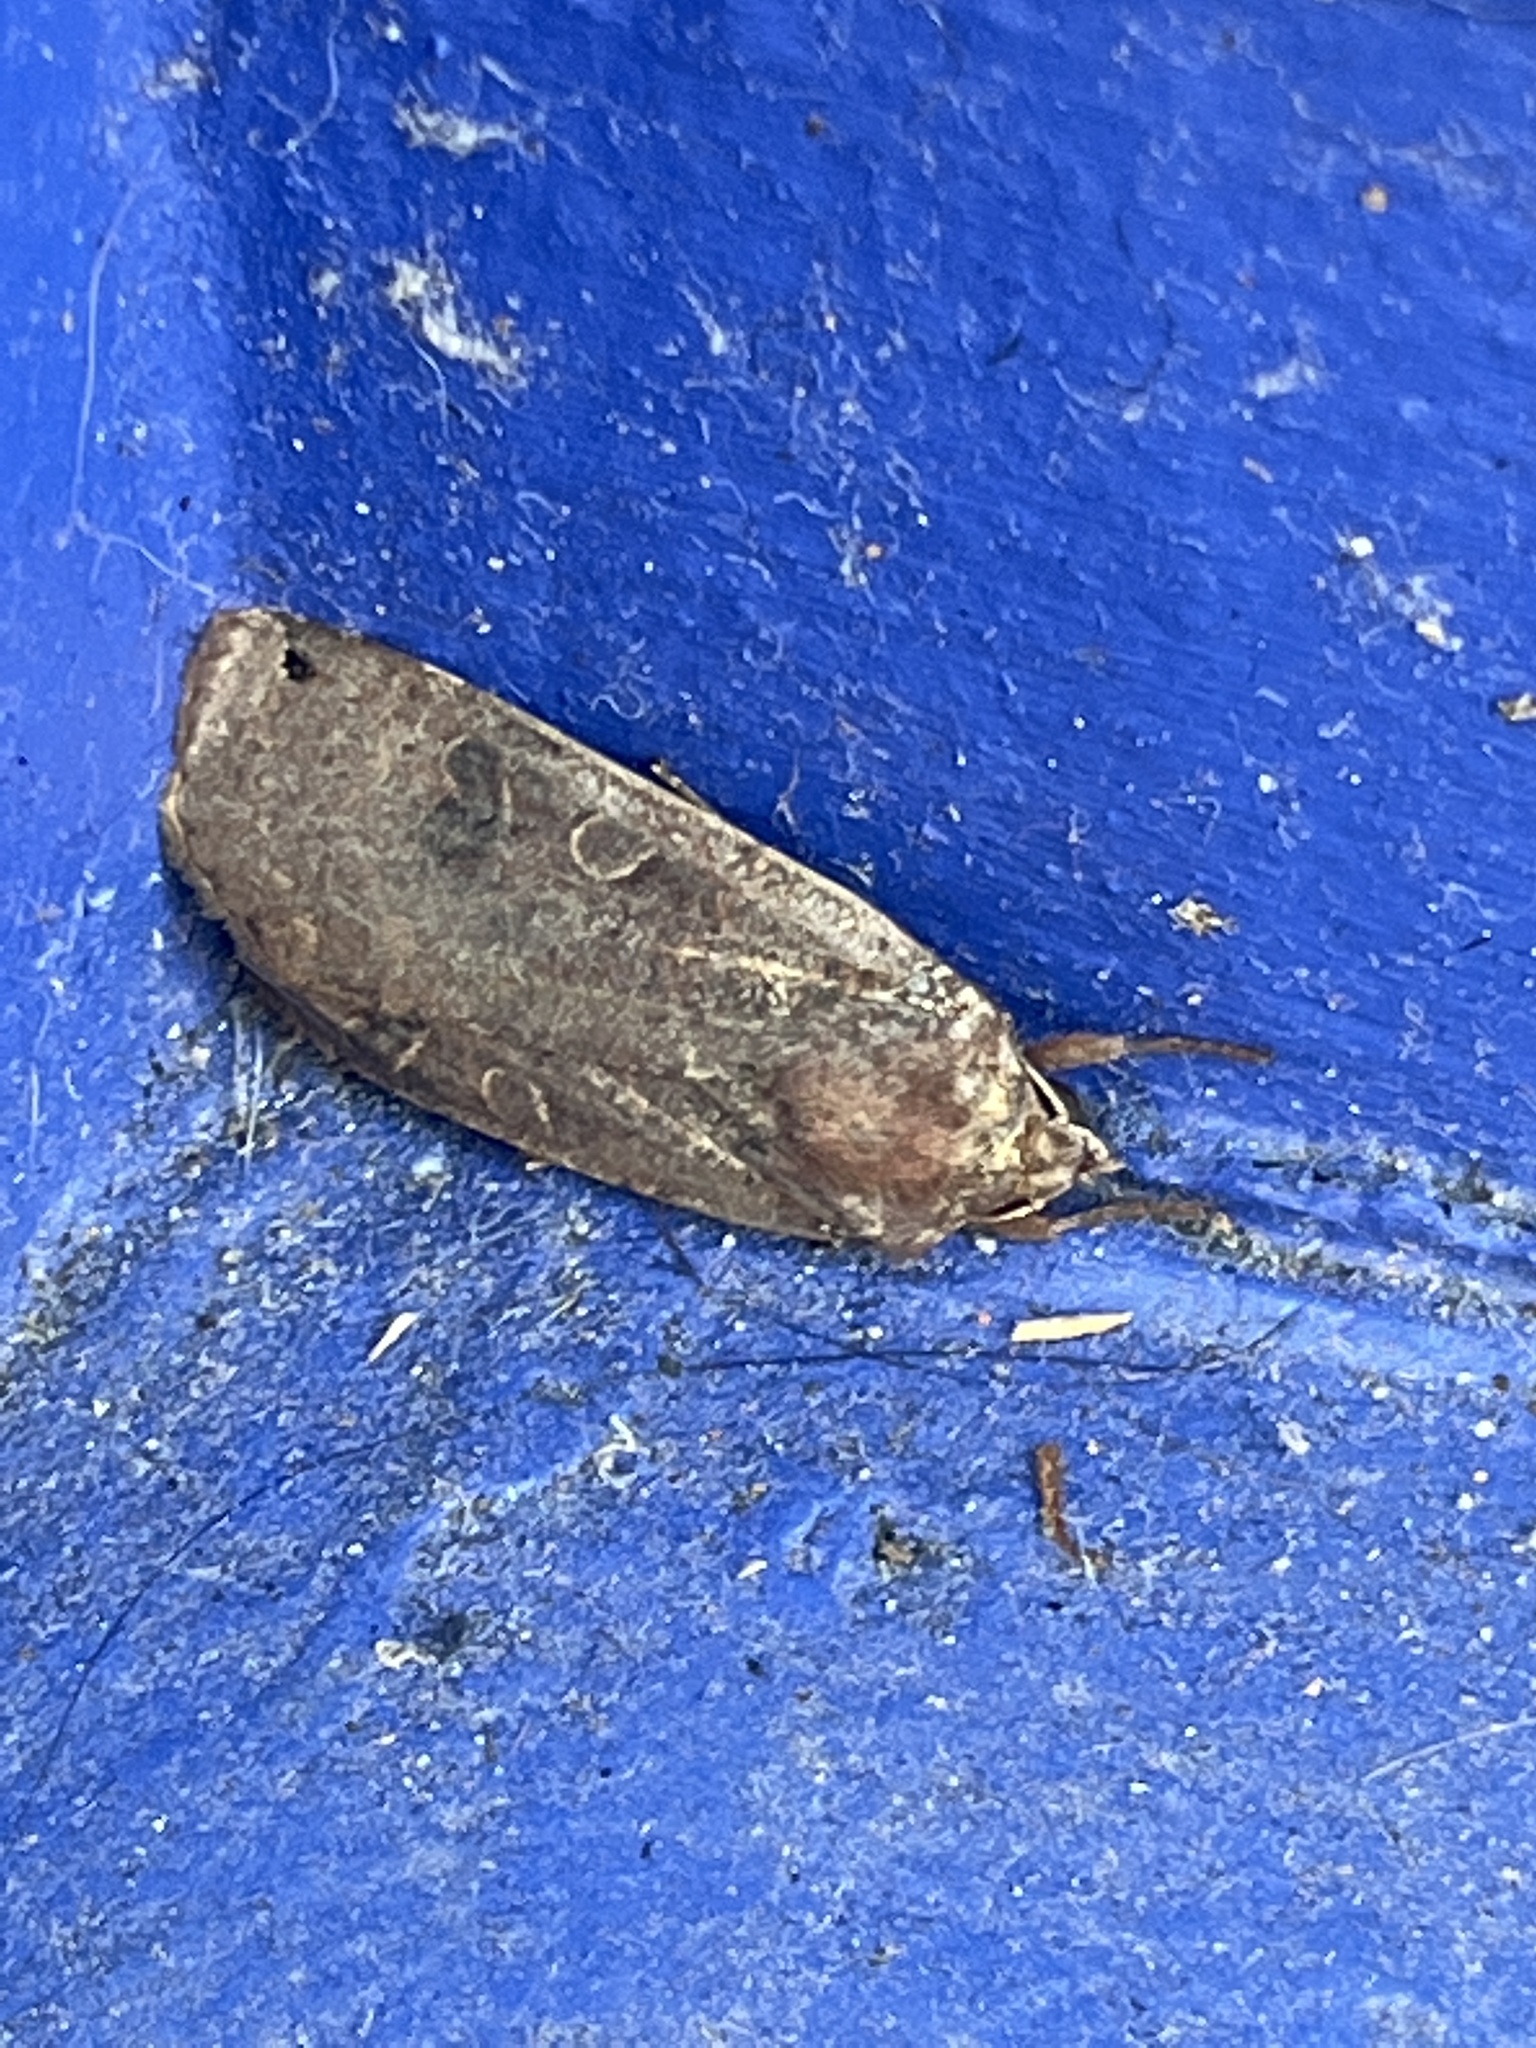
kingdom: Animalia
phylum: Arthropoda
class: Insecta
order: Lepidoptera
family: Noctuidae
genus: Noctua
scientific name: Noctua pronuba
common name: Large yellow underwing
